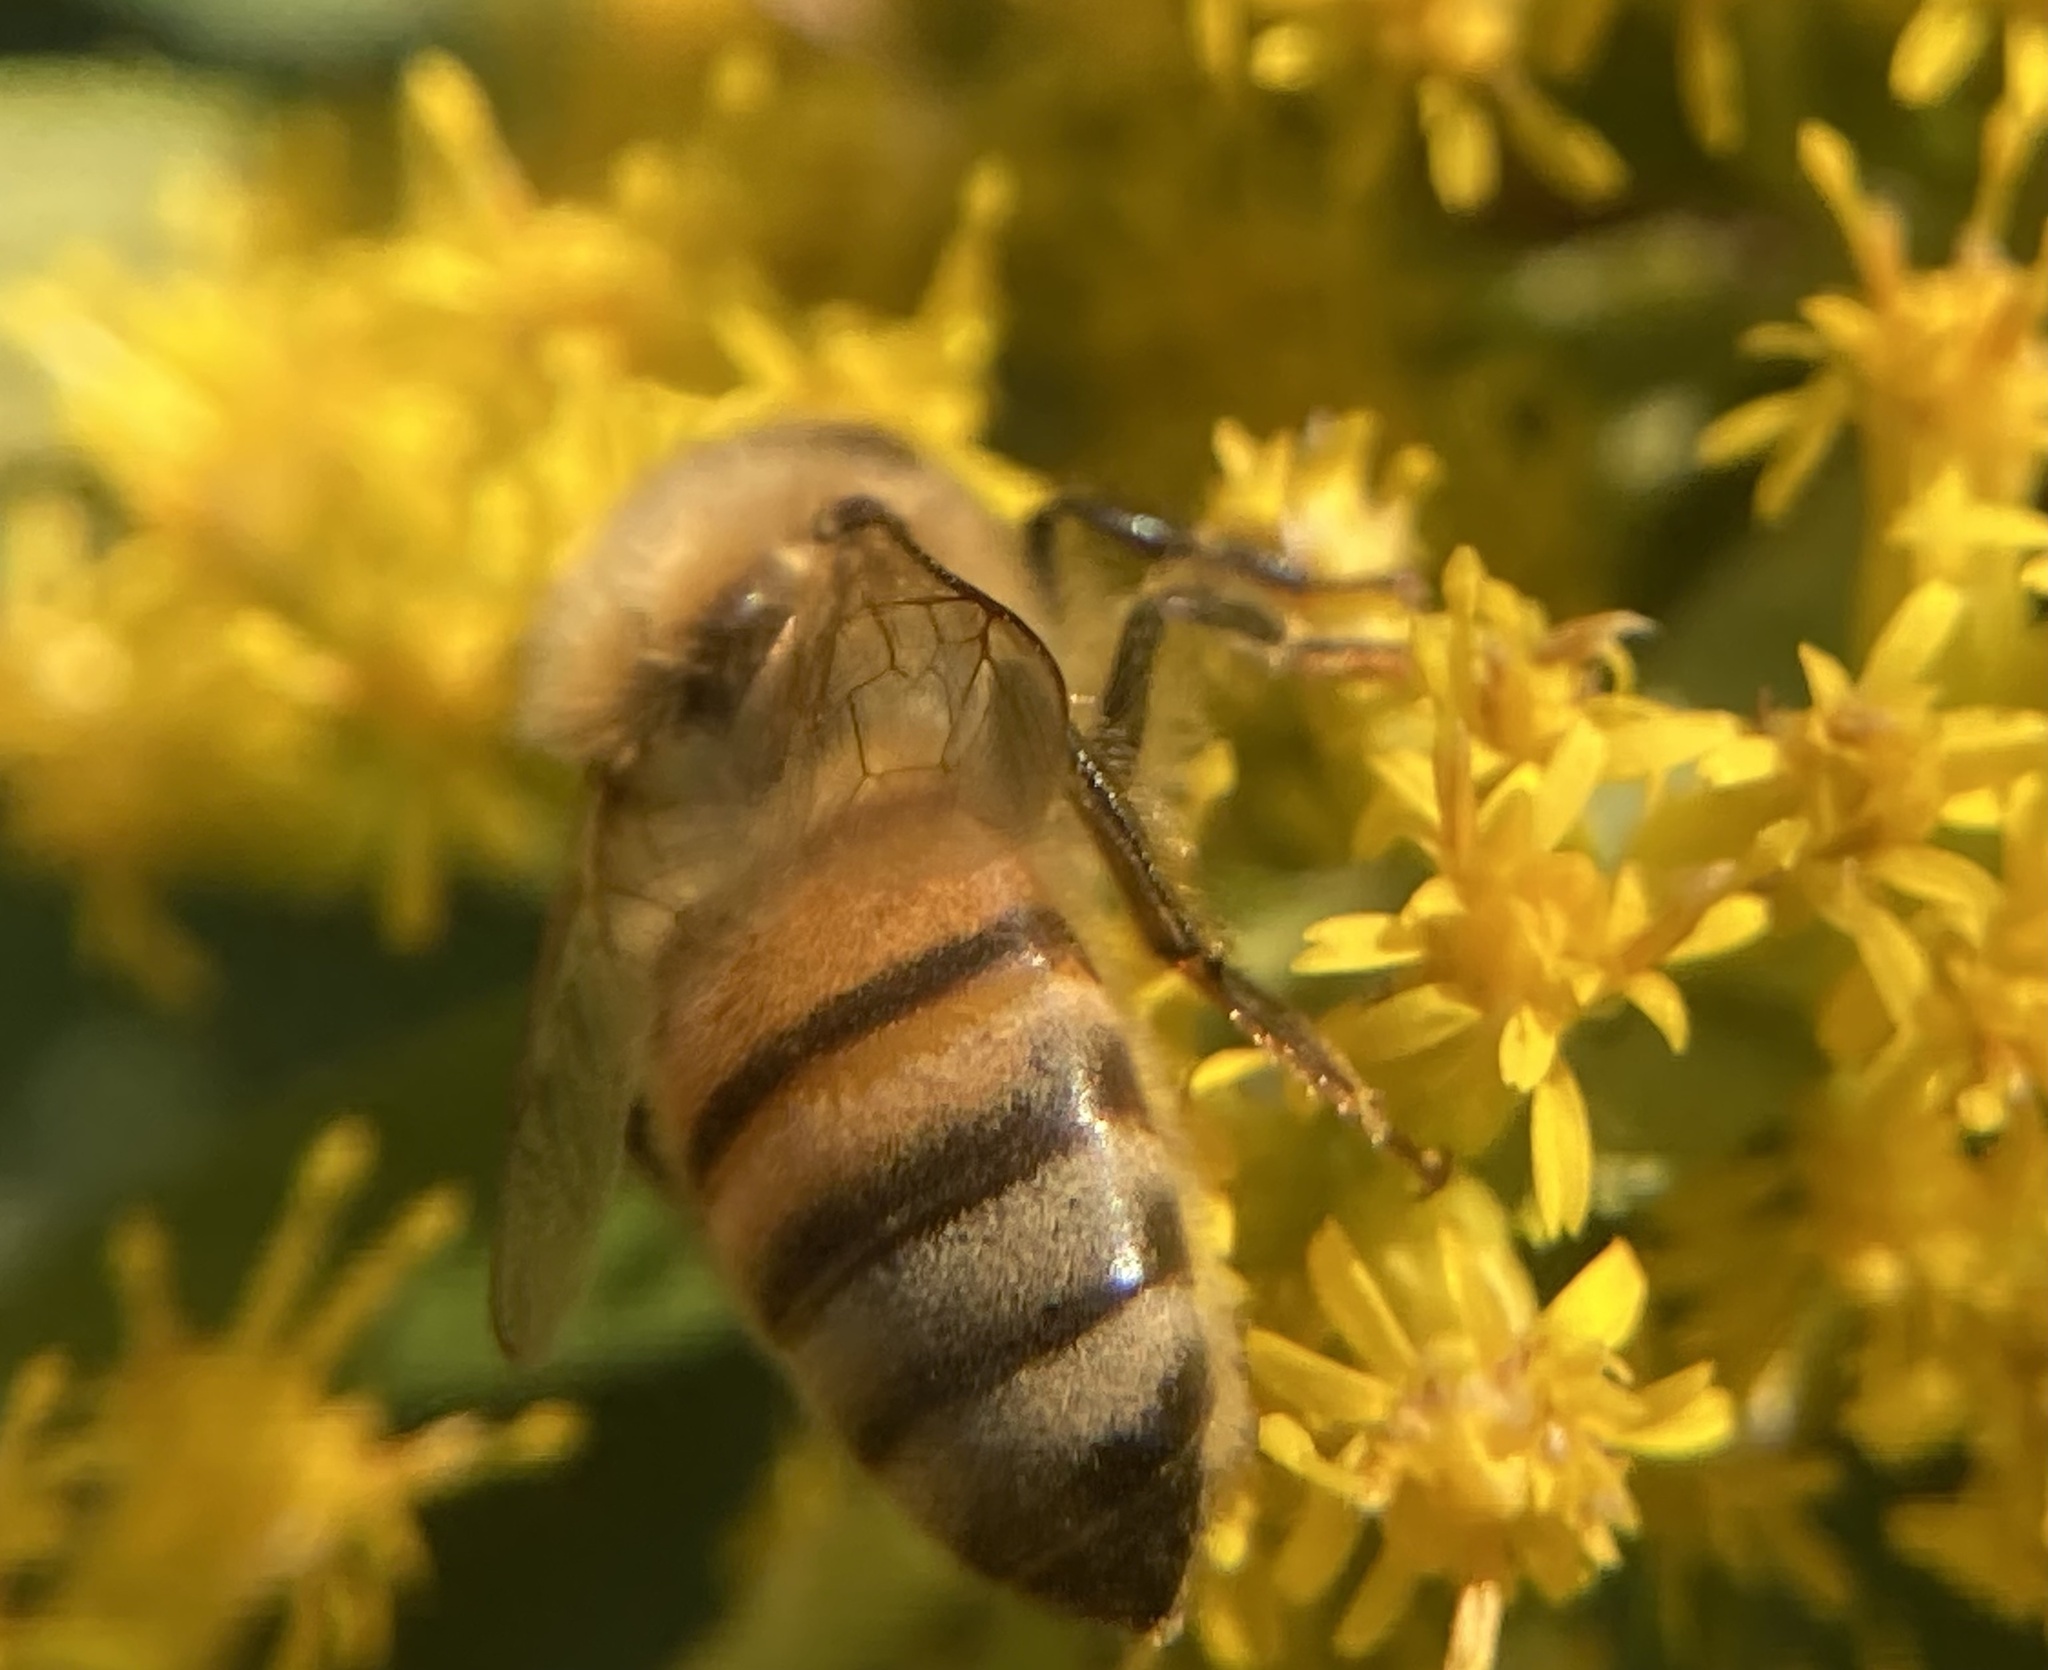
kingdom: Animalia
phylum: Arthropoda
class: Insecta
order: Hymenoptera
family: Apidae
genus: Apis
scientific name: Apis mellifera
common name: Honey bee
